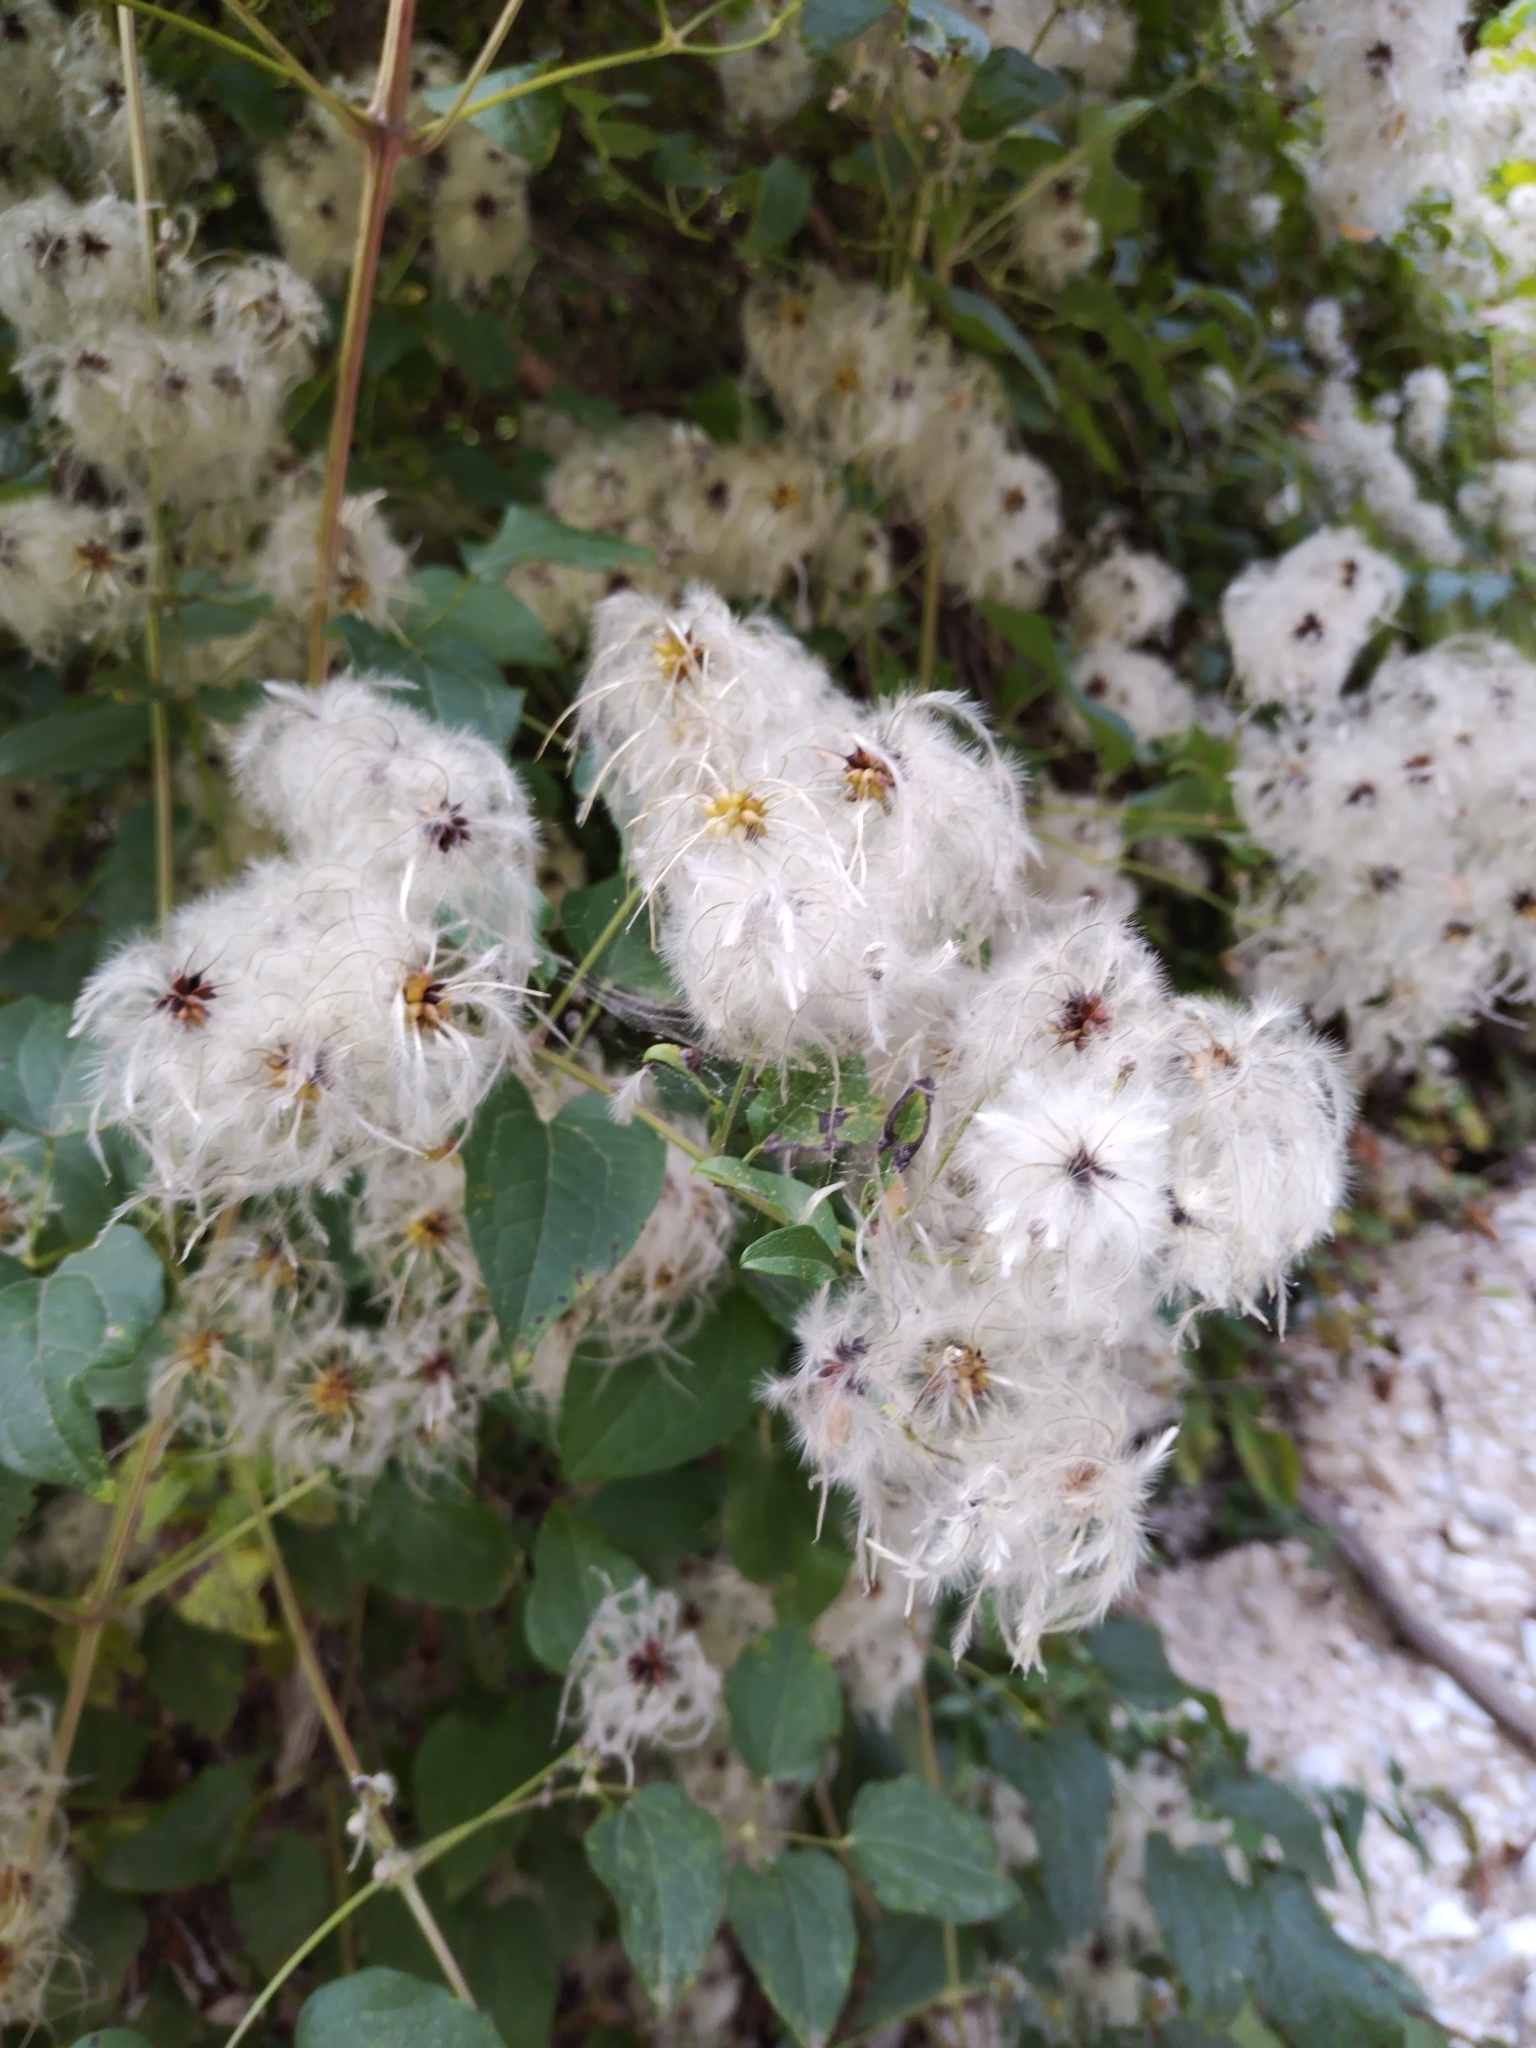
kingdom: Plantae
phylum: Tracheophyta
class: Magnoliopsida
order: Ranunculales
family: Ranunculaceae
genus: Clematis
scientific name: Clematis vitalba
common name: Evergreen clematis
